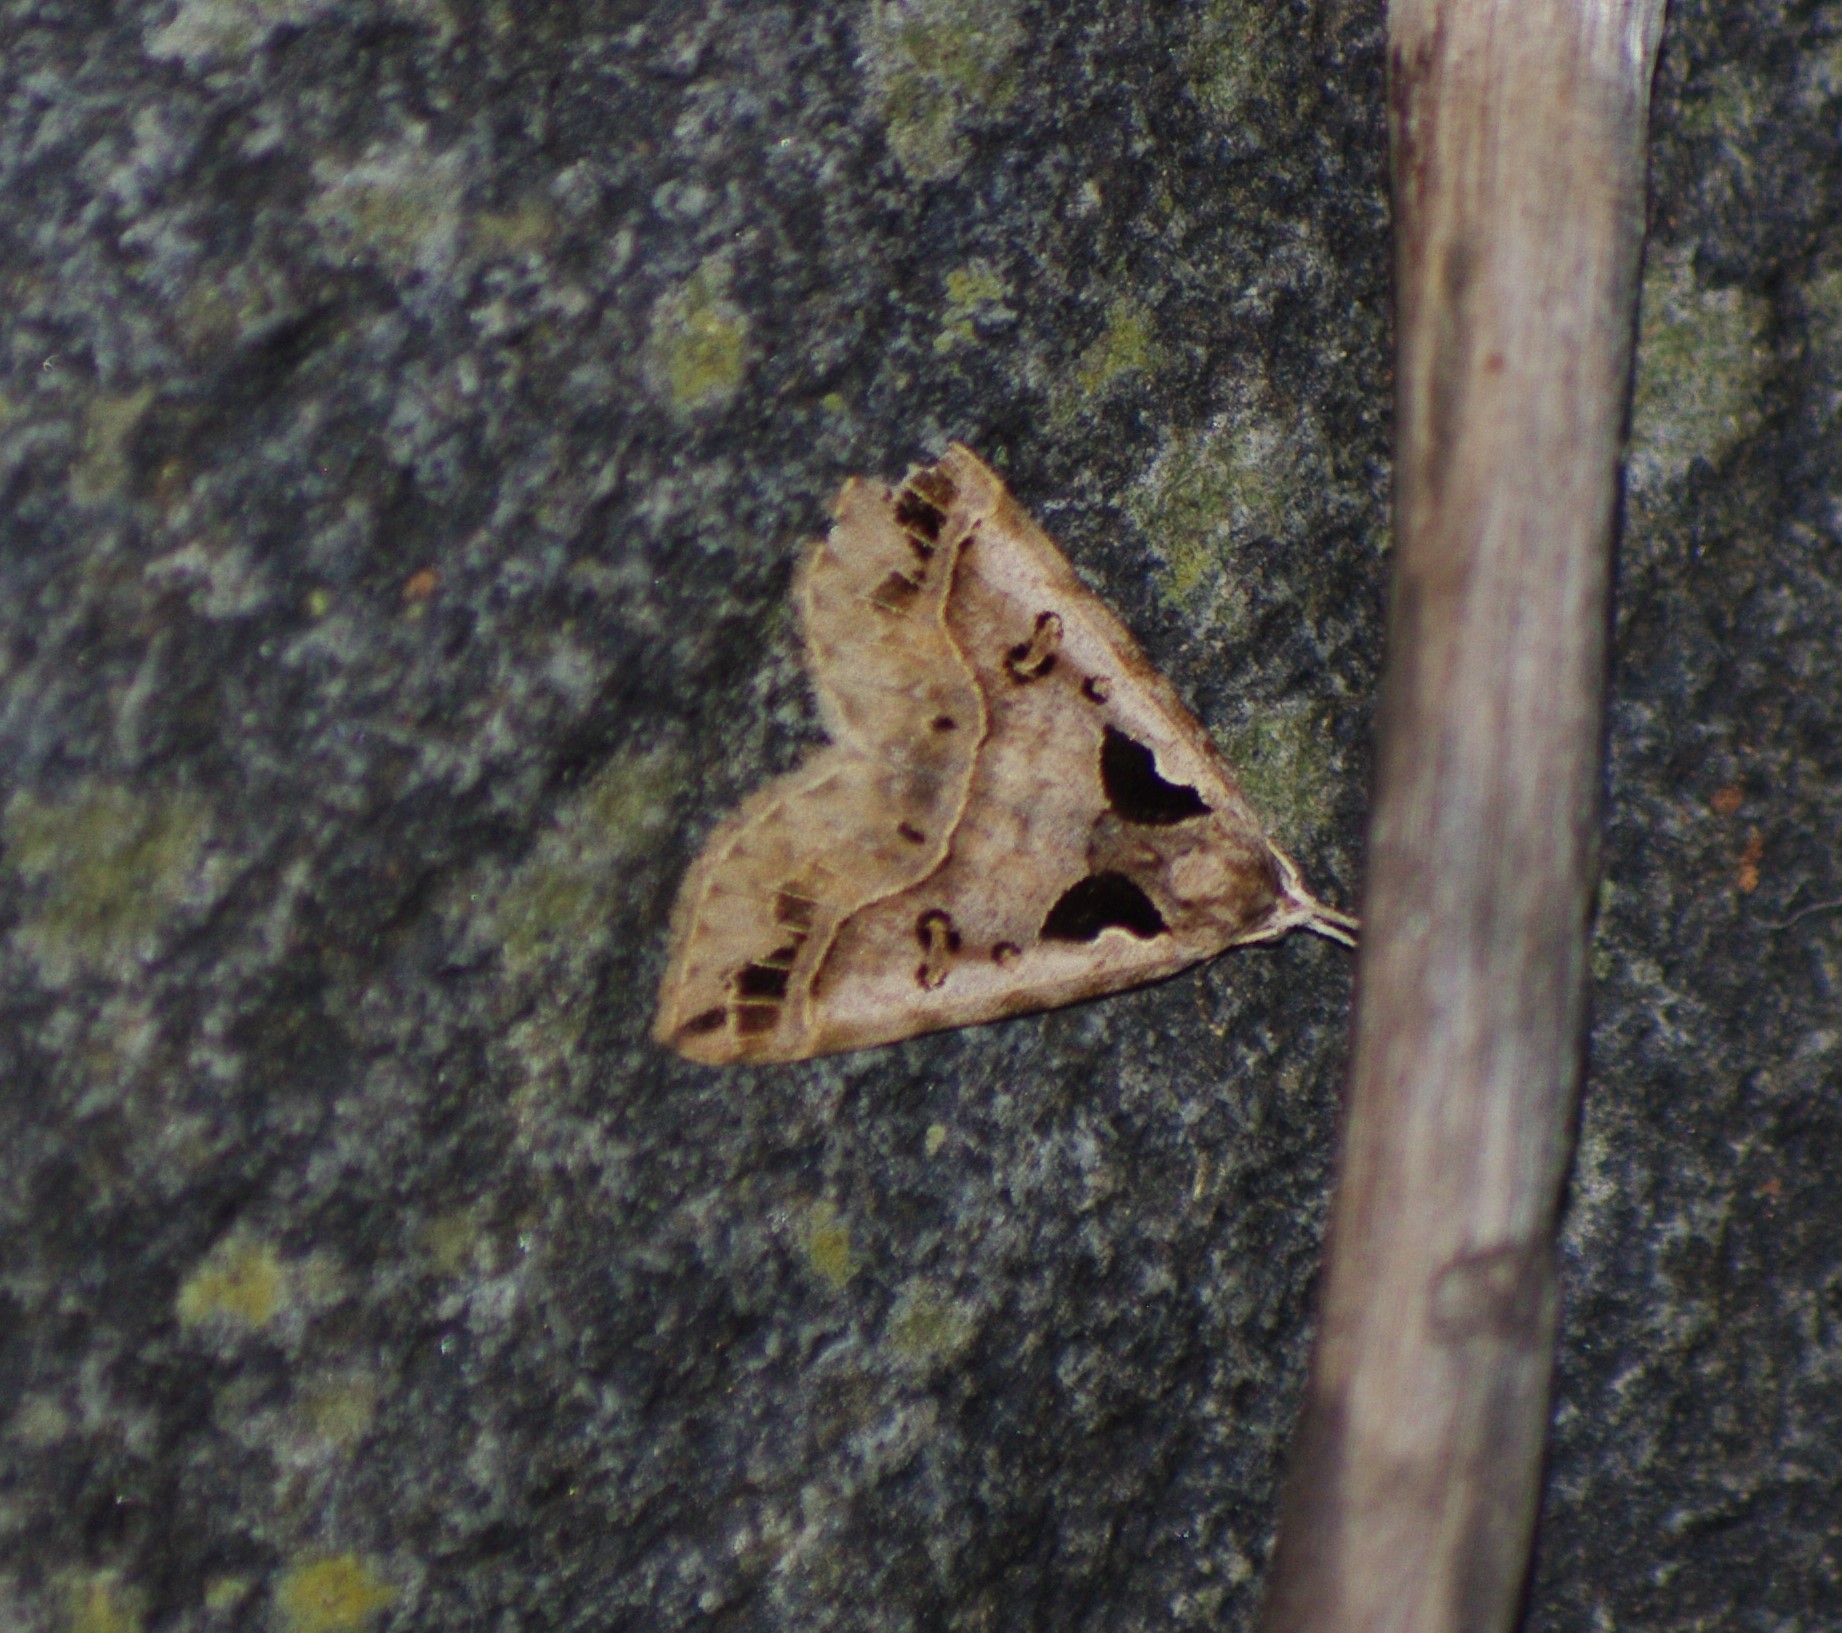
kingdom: Animalia
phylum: Arthropoda
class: Insecta
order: Lepidoptera
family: Erebidae
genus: Arsina
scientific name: Arsina vausema
